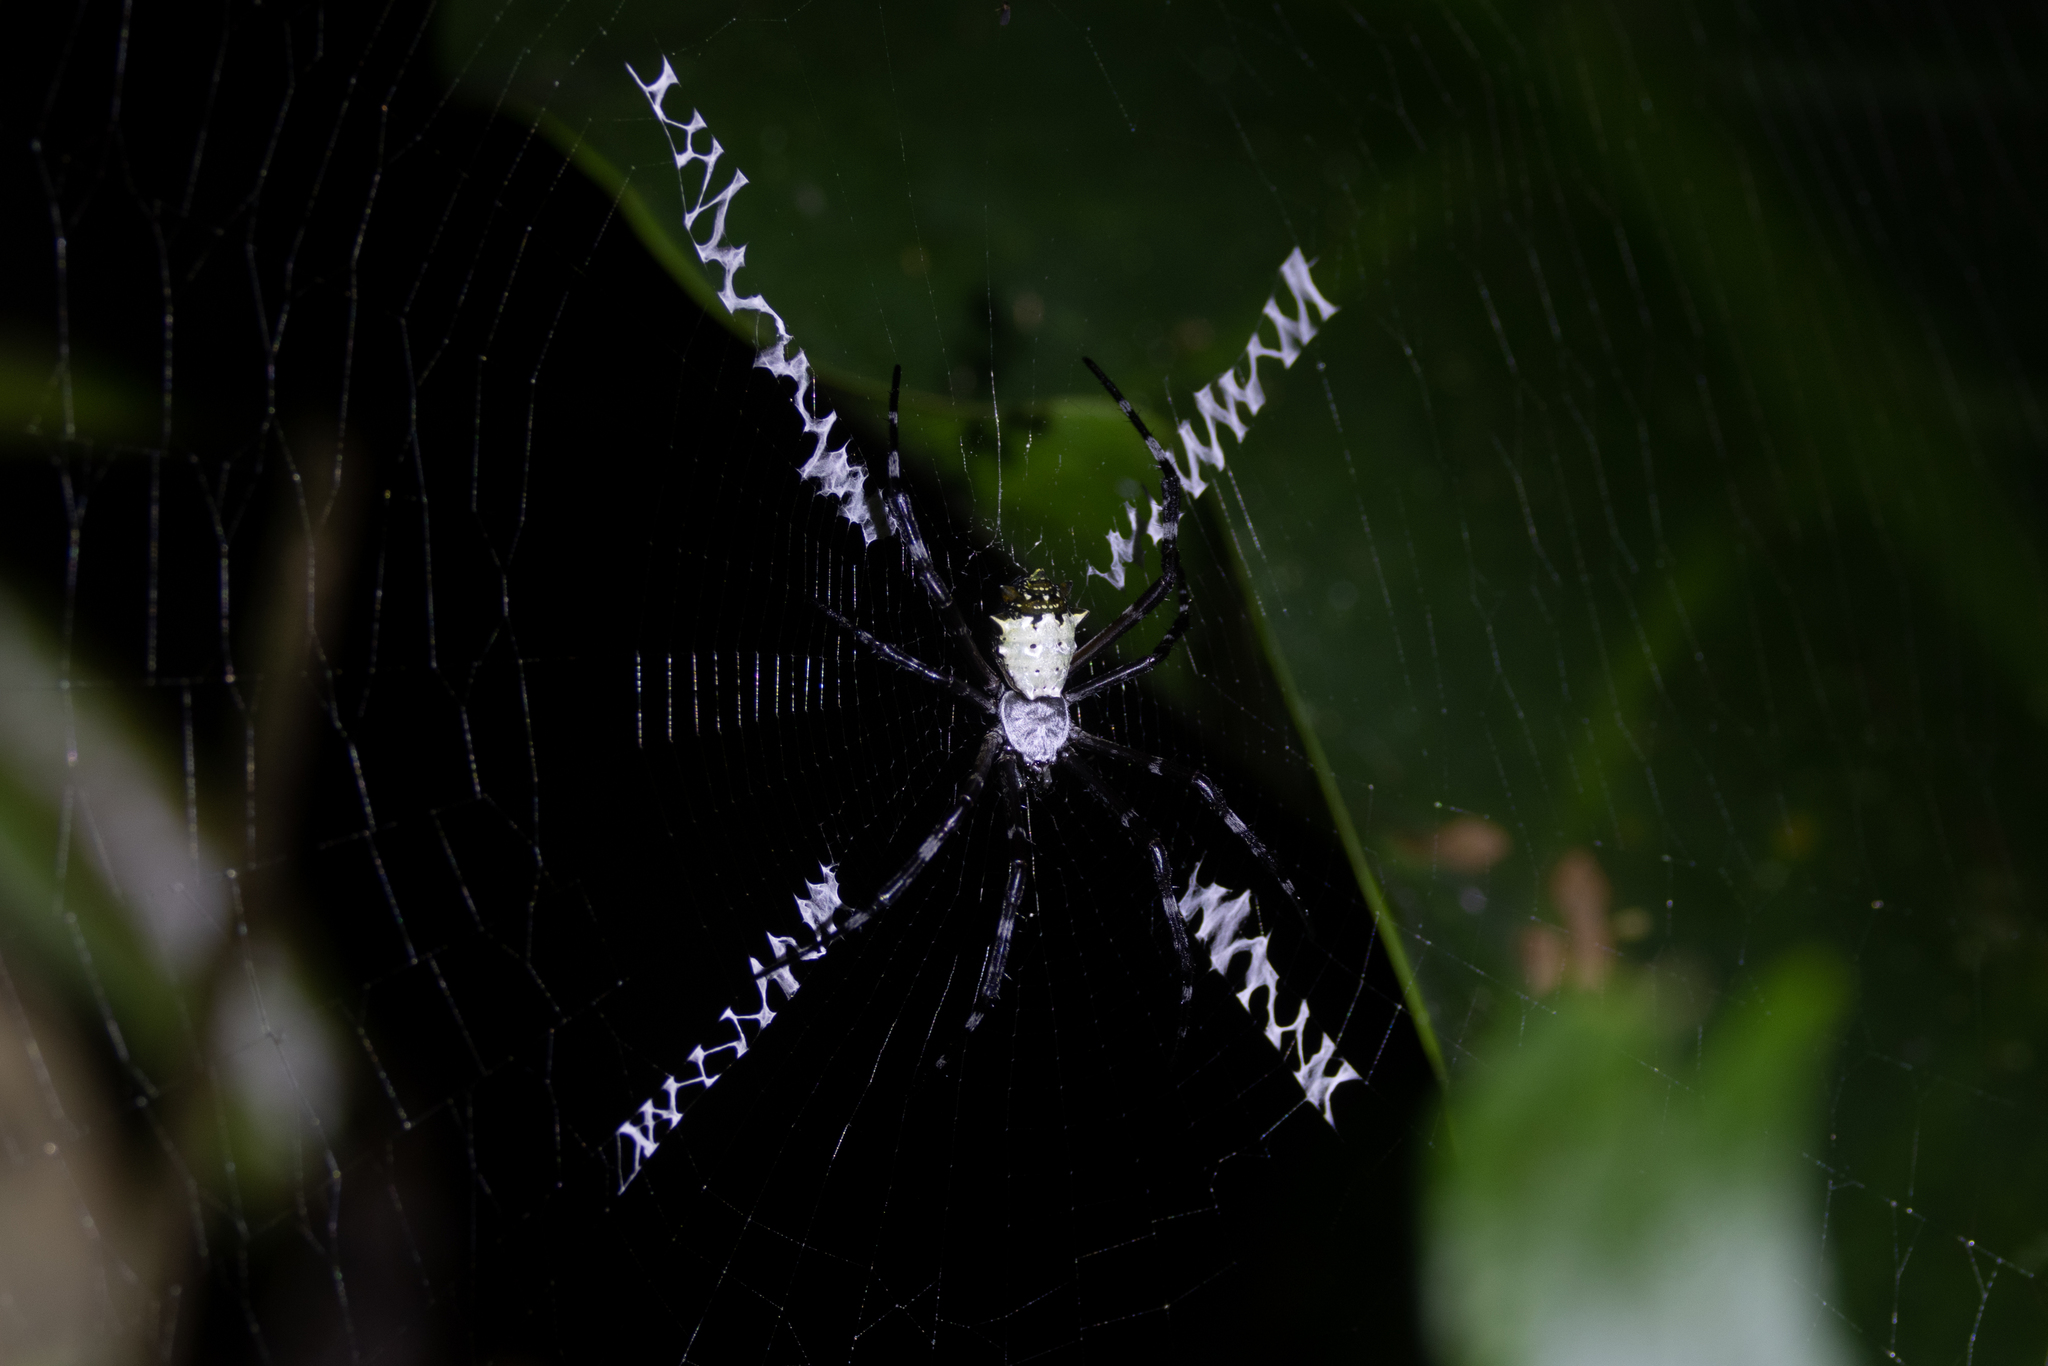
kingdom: Animalia
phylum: Arthropoda
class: Arachnida
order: Araneae
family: Araneidae
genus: Argiope
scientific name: Argiope submaronica
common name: Orb weavers
